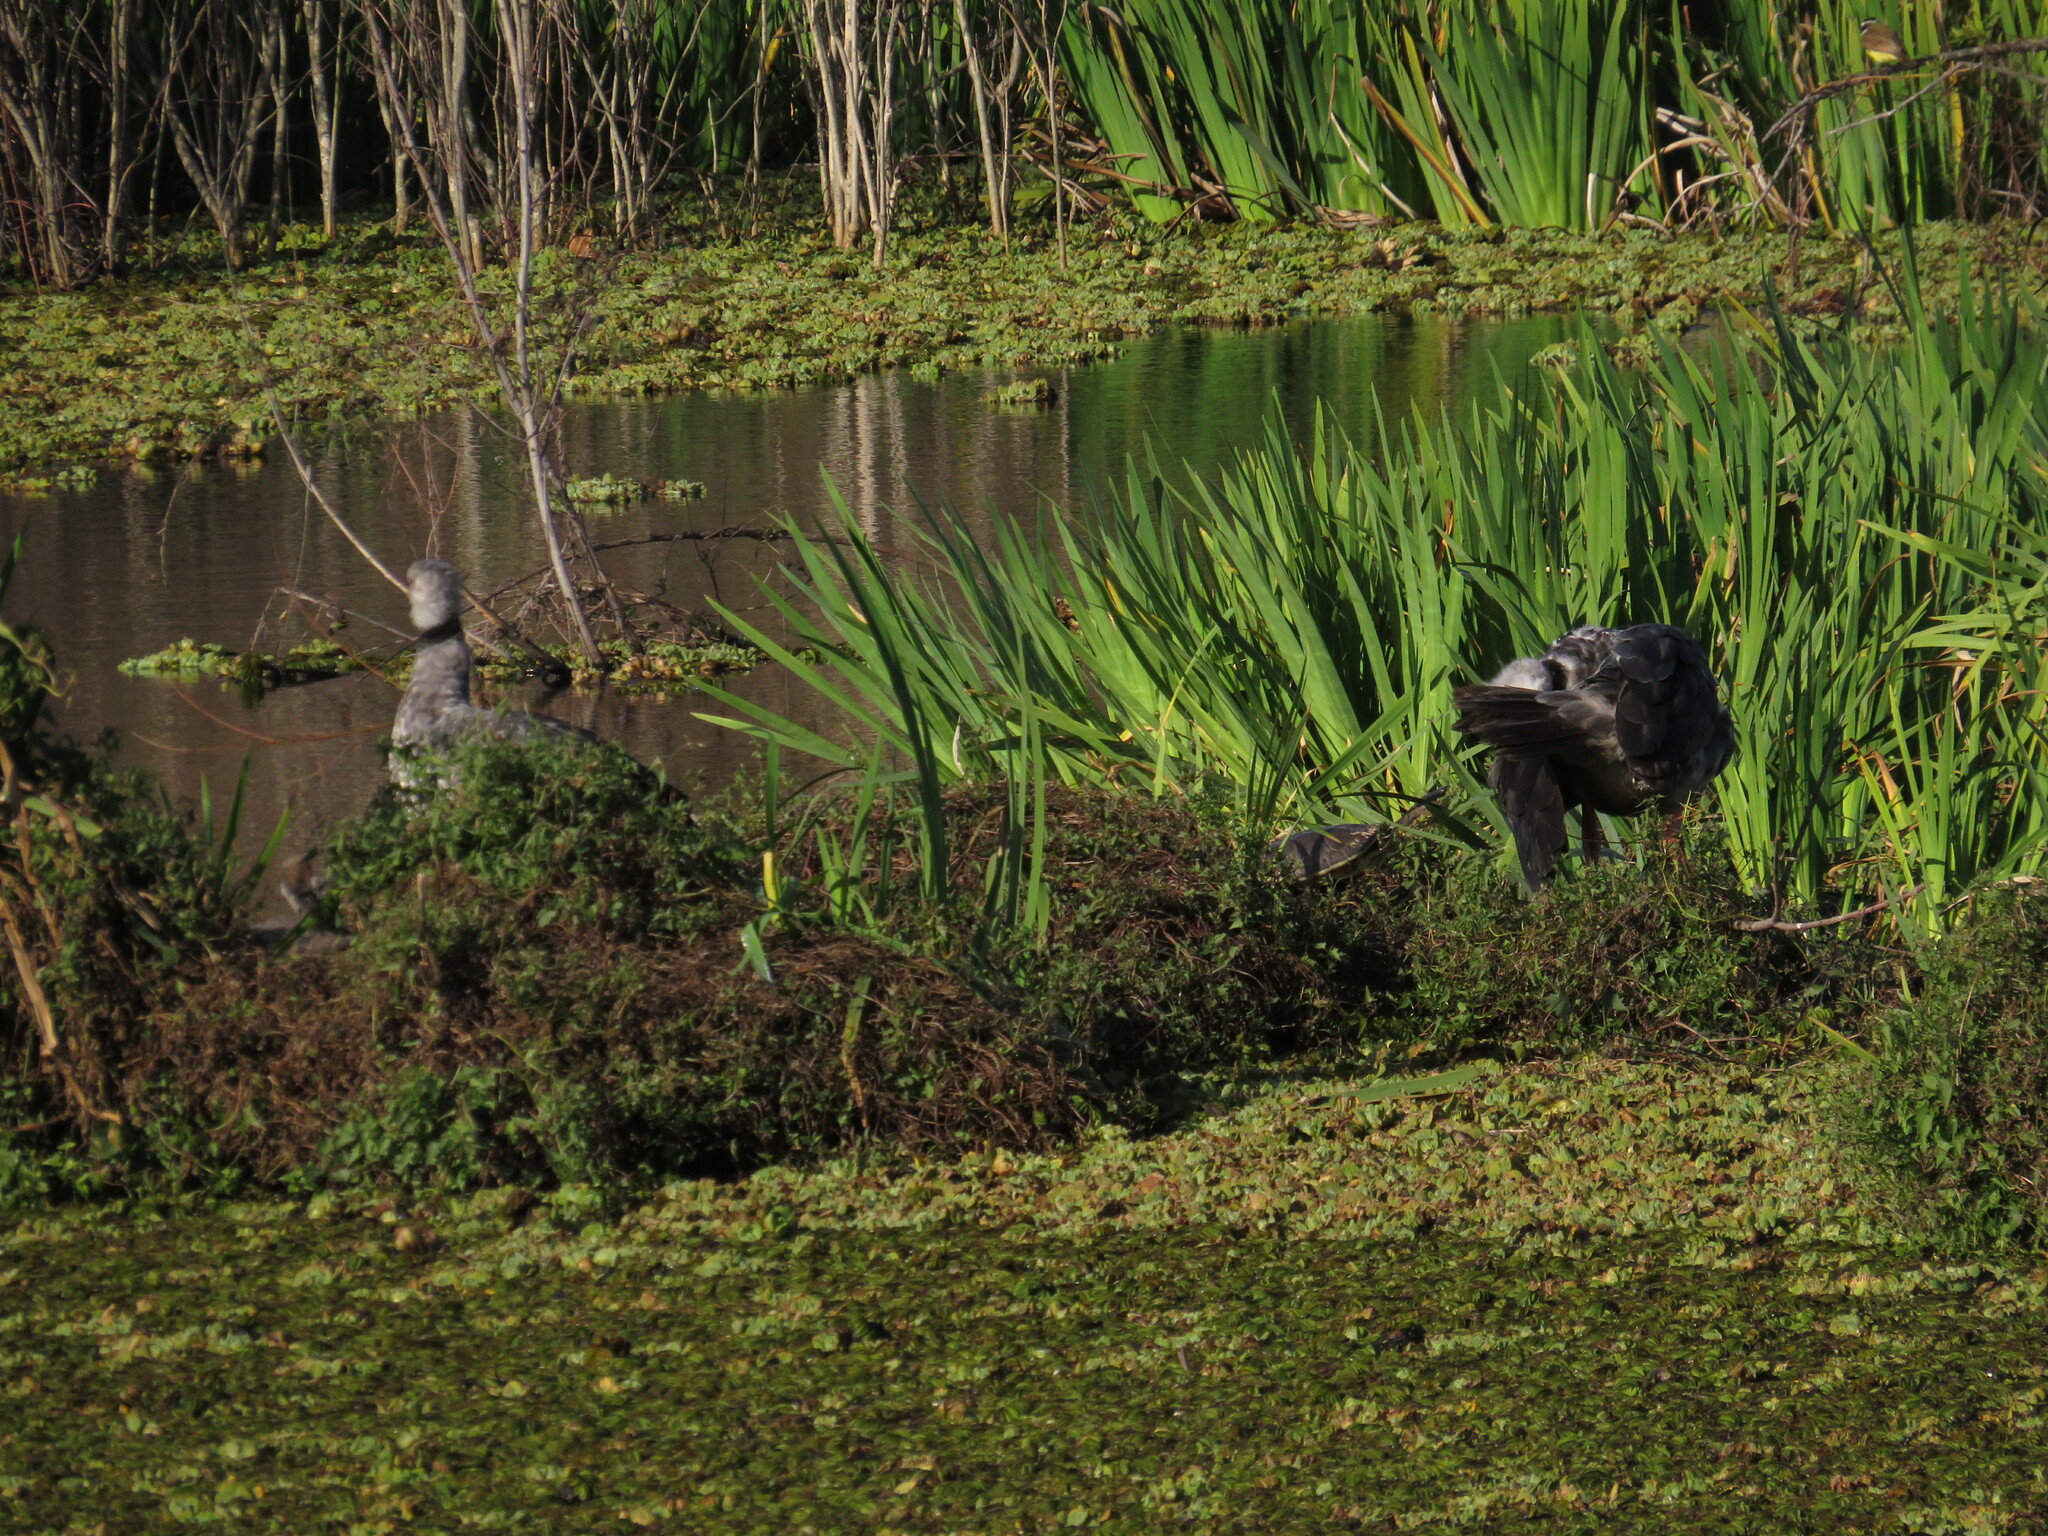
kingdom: Animalia
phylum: Chordata
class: Aves
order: Anseriformes
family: Anhimidae
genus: Chauna
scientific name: Chauna torquata
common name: Southern screamer
